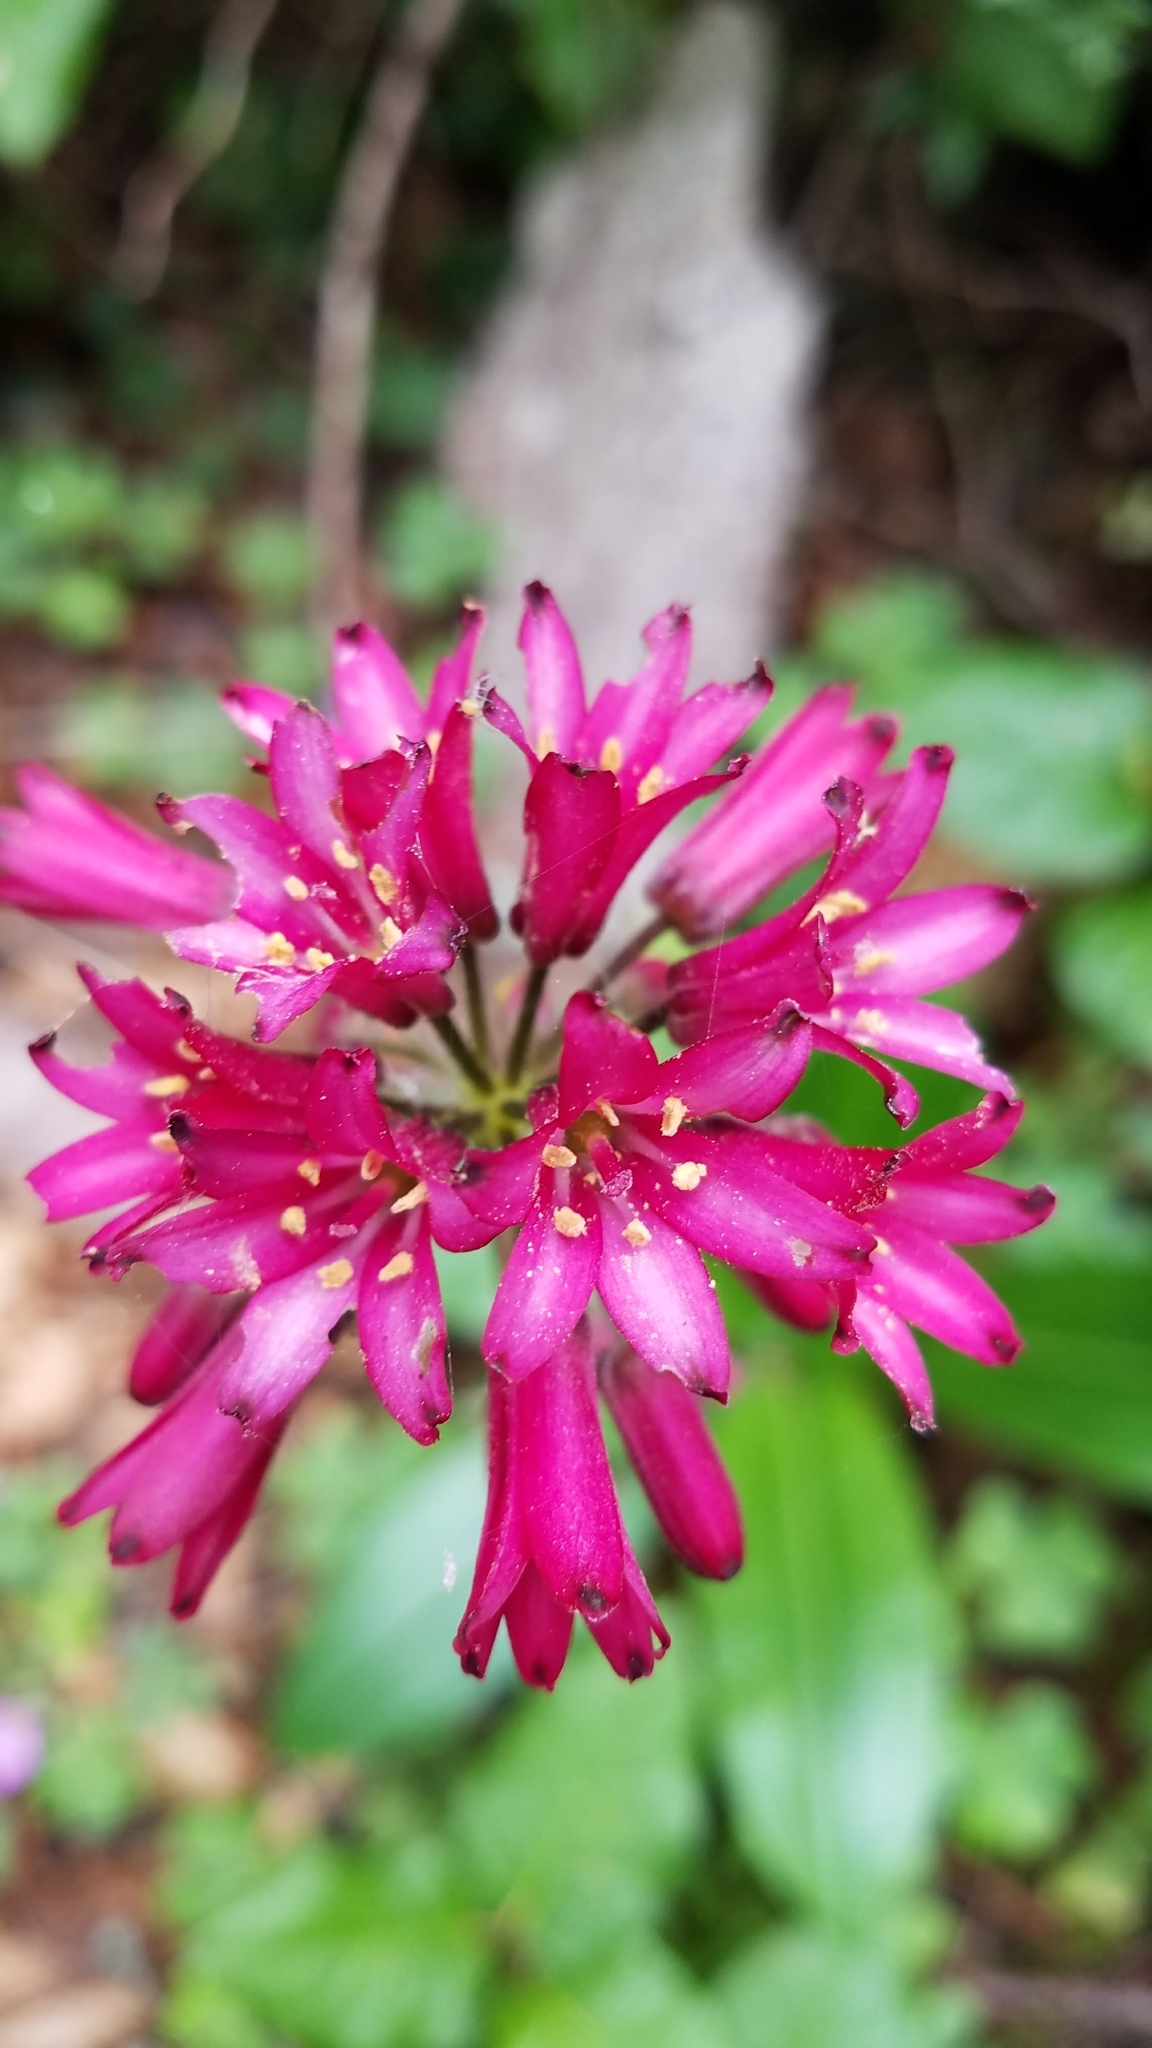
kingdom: Plantae
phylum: Tracheophyta
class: Liliopsida
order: Liliales
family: Liliaceae
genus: Clintonia
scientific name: Clintonia andrewsiana
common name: Red clintonia
